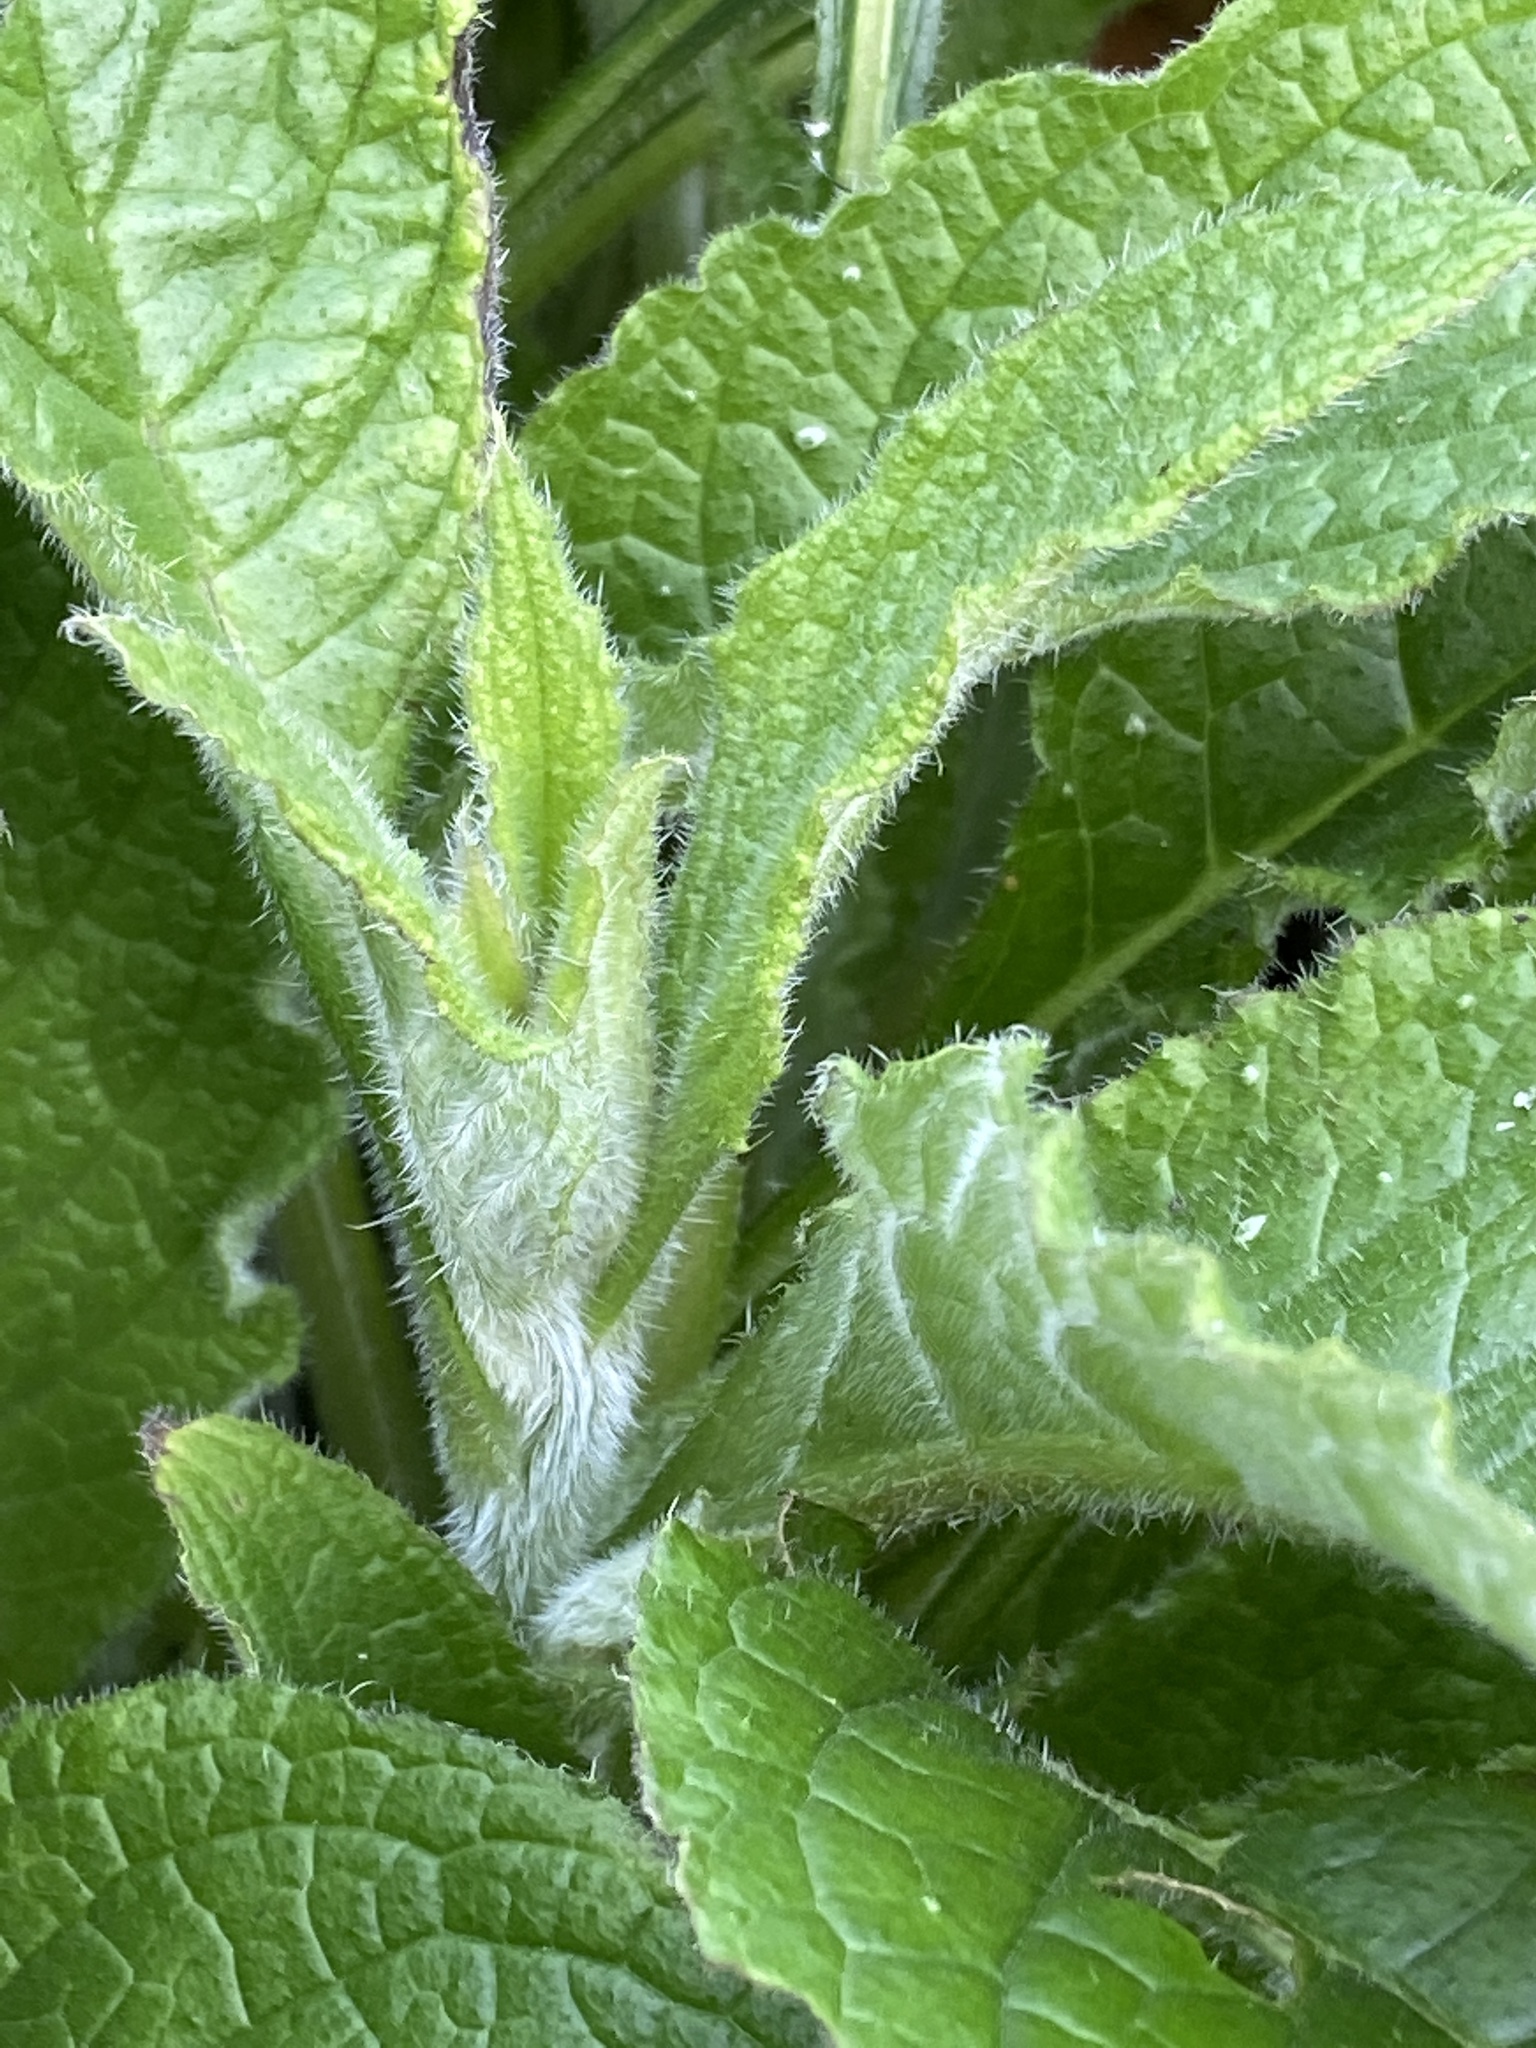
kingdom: Plantae
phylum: Tracheophyta
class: Magnoliopsida
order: Boraginales
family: Boraginaceae
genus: Pentaglottis
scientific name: Pentaglottis sempervirens
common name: Green alkanet
